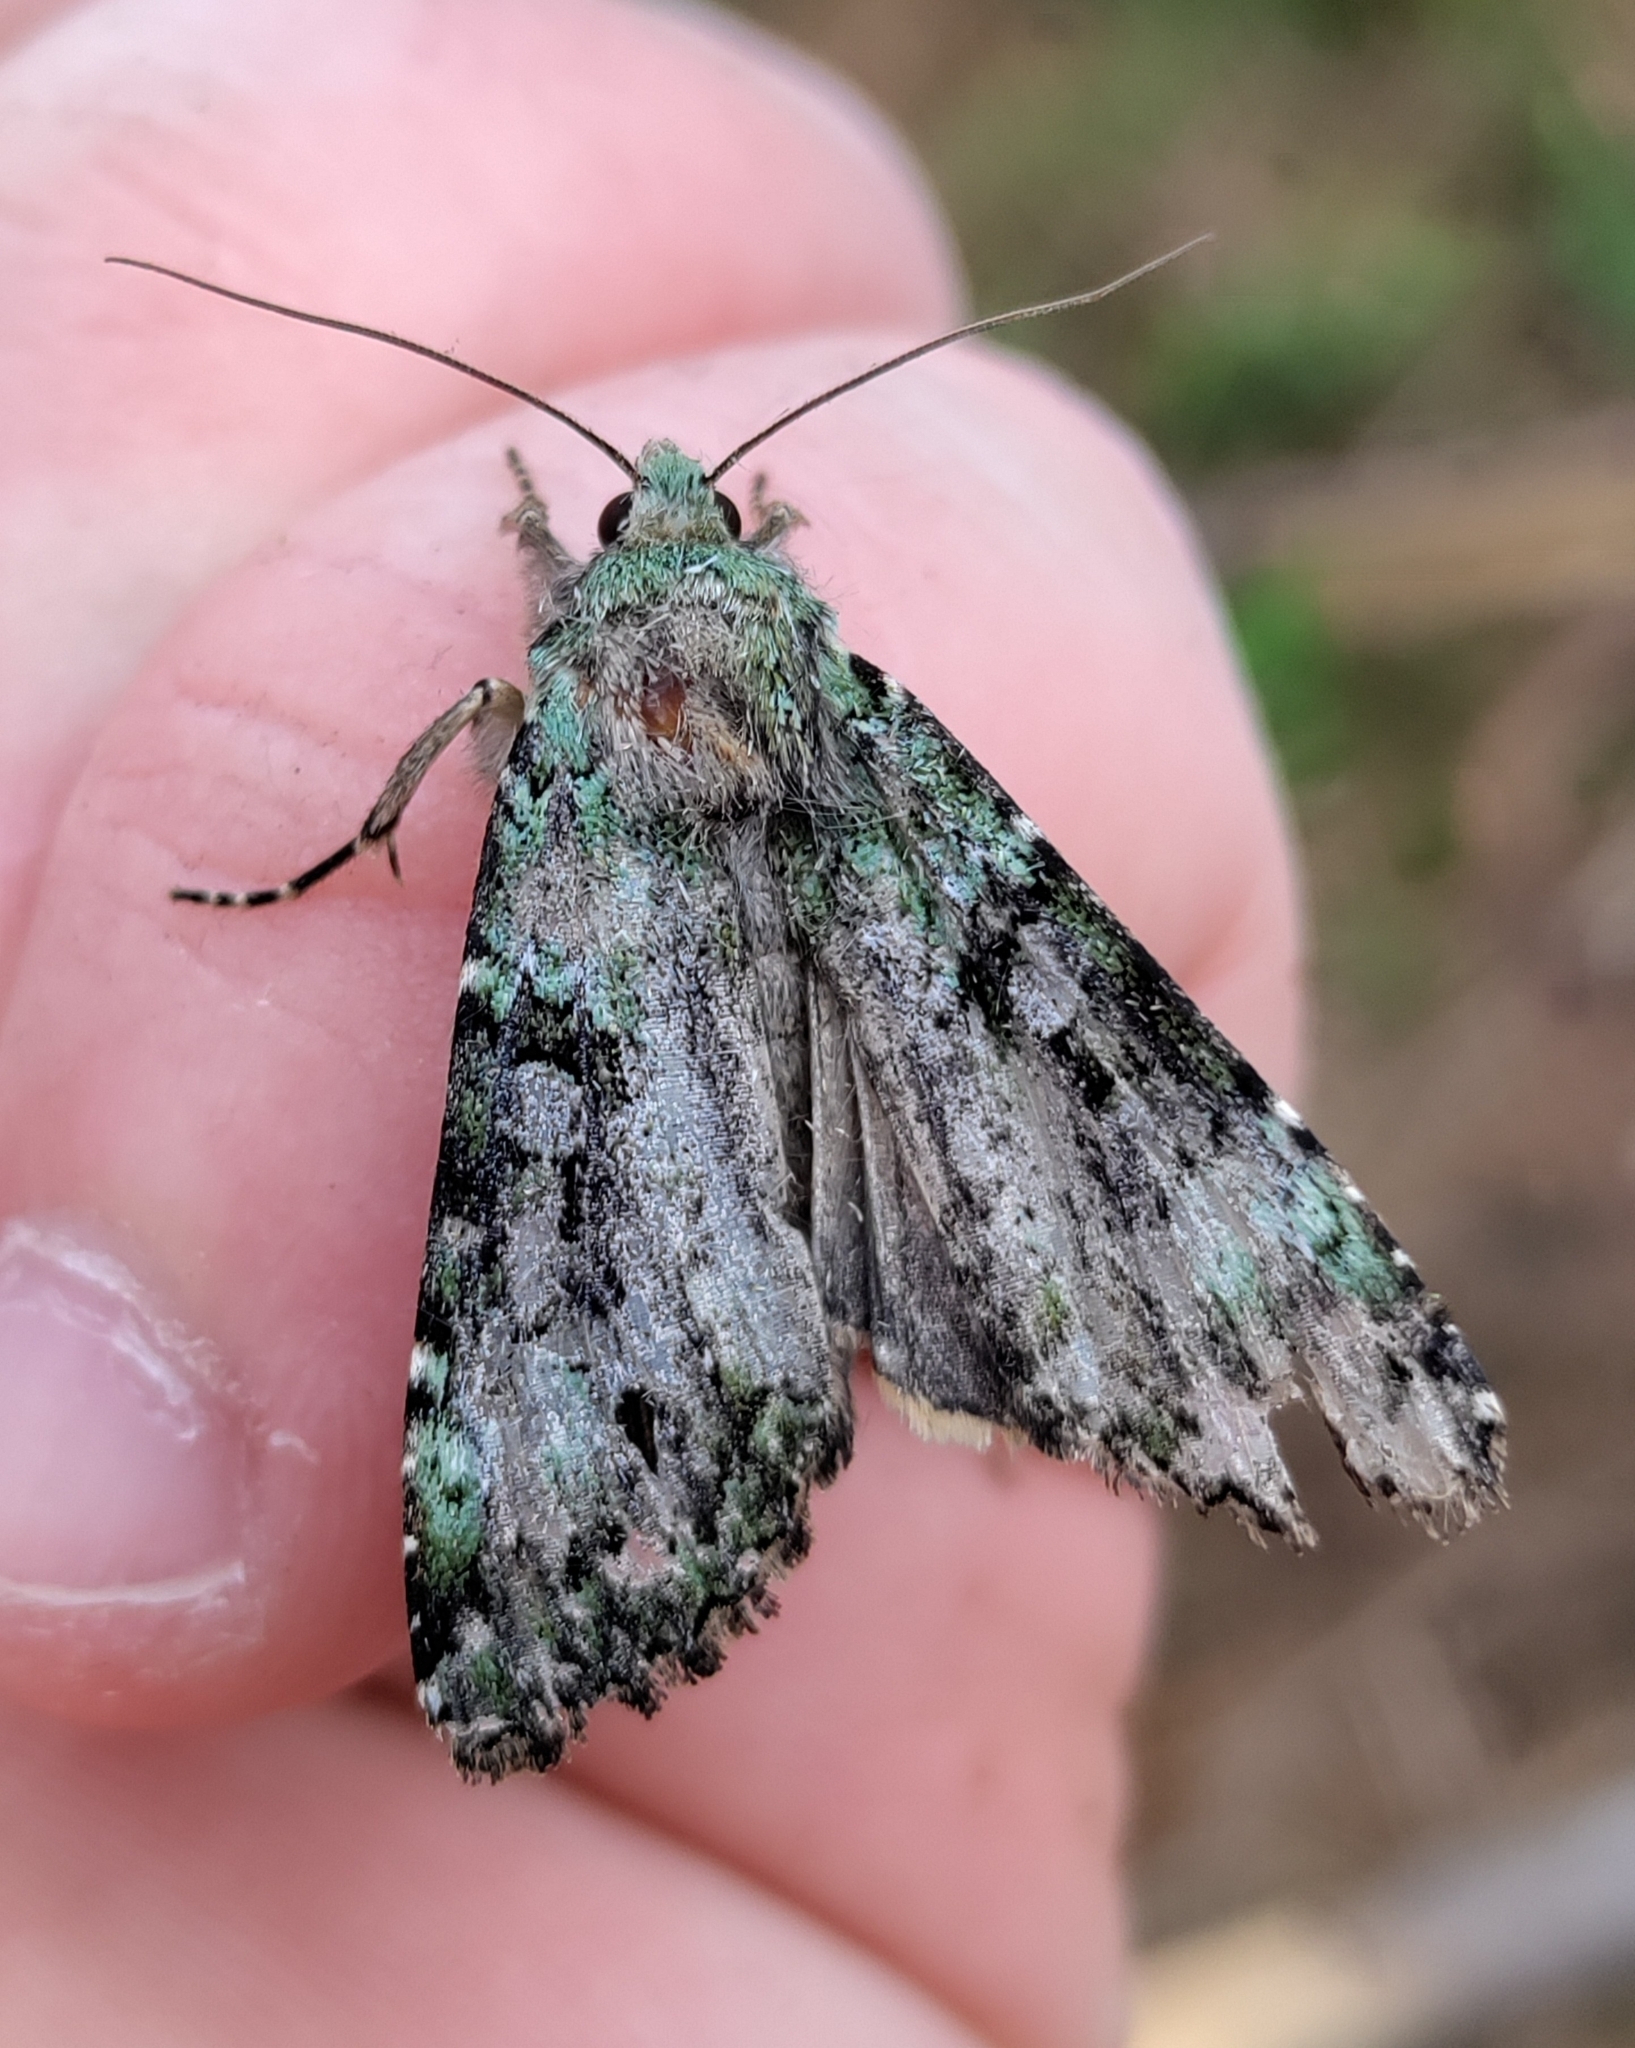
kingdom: Animalia
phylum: Arthropoda
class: Insecta
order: Lepidoptera
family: Noctuidae
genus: Anaplectoides
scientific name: Anaplectoides prasina
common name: Green arches
